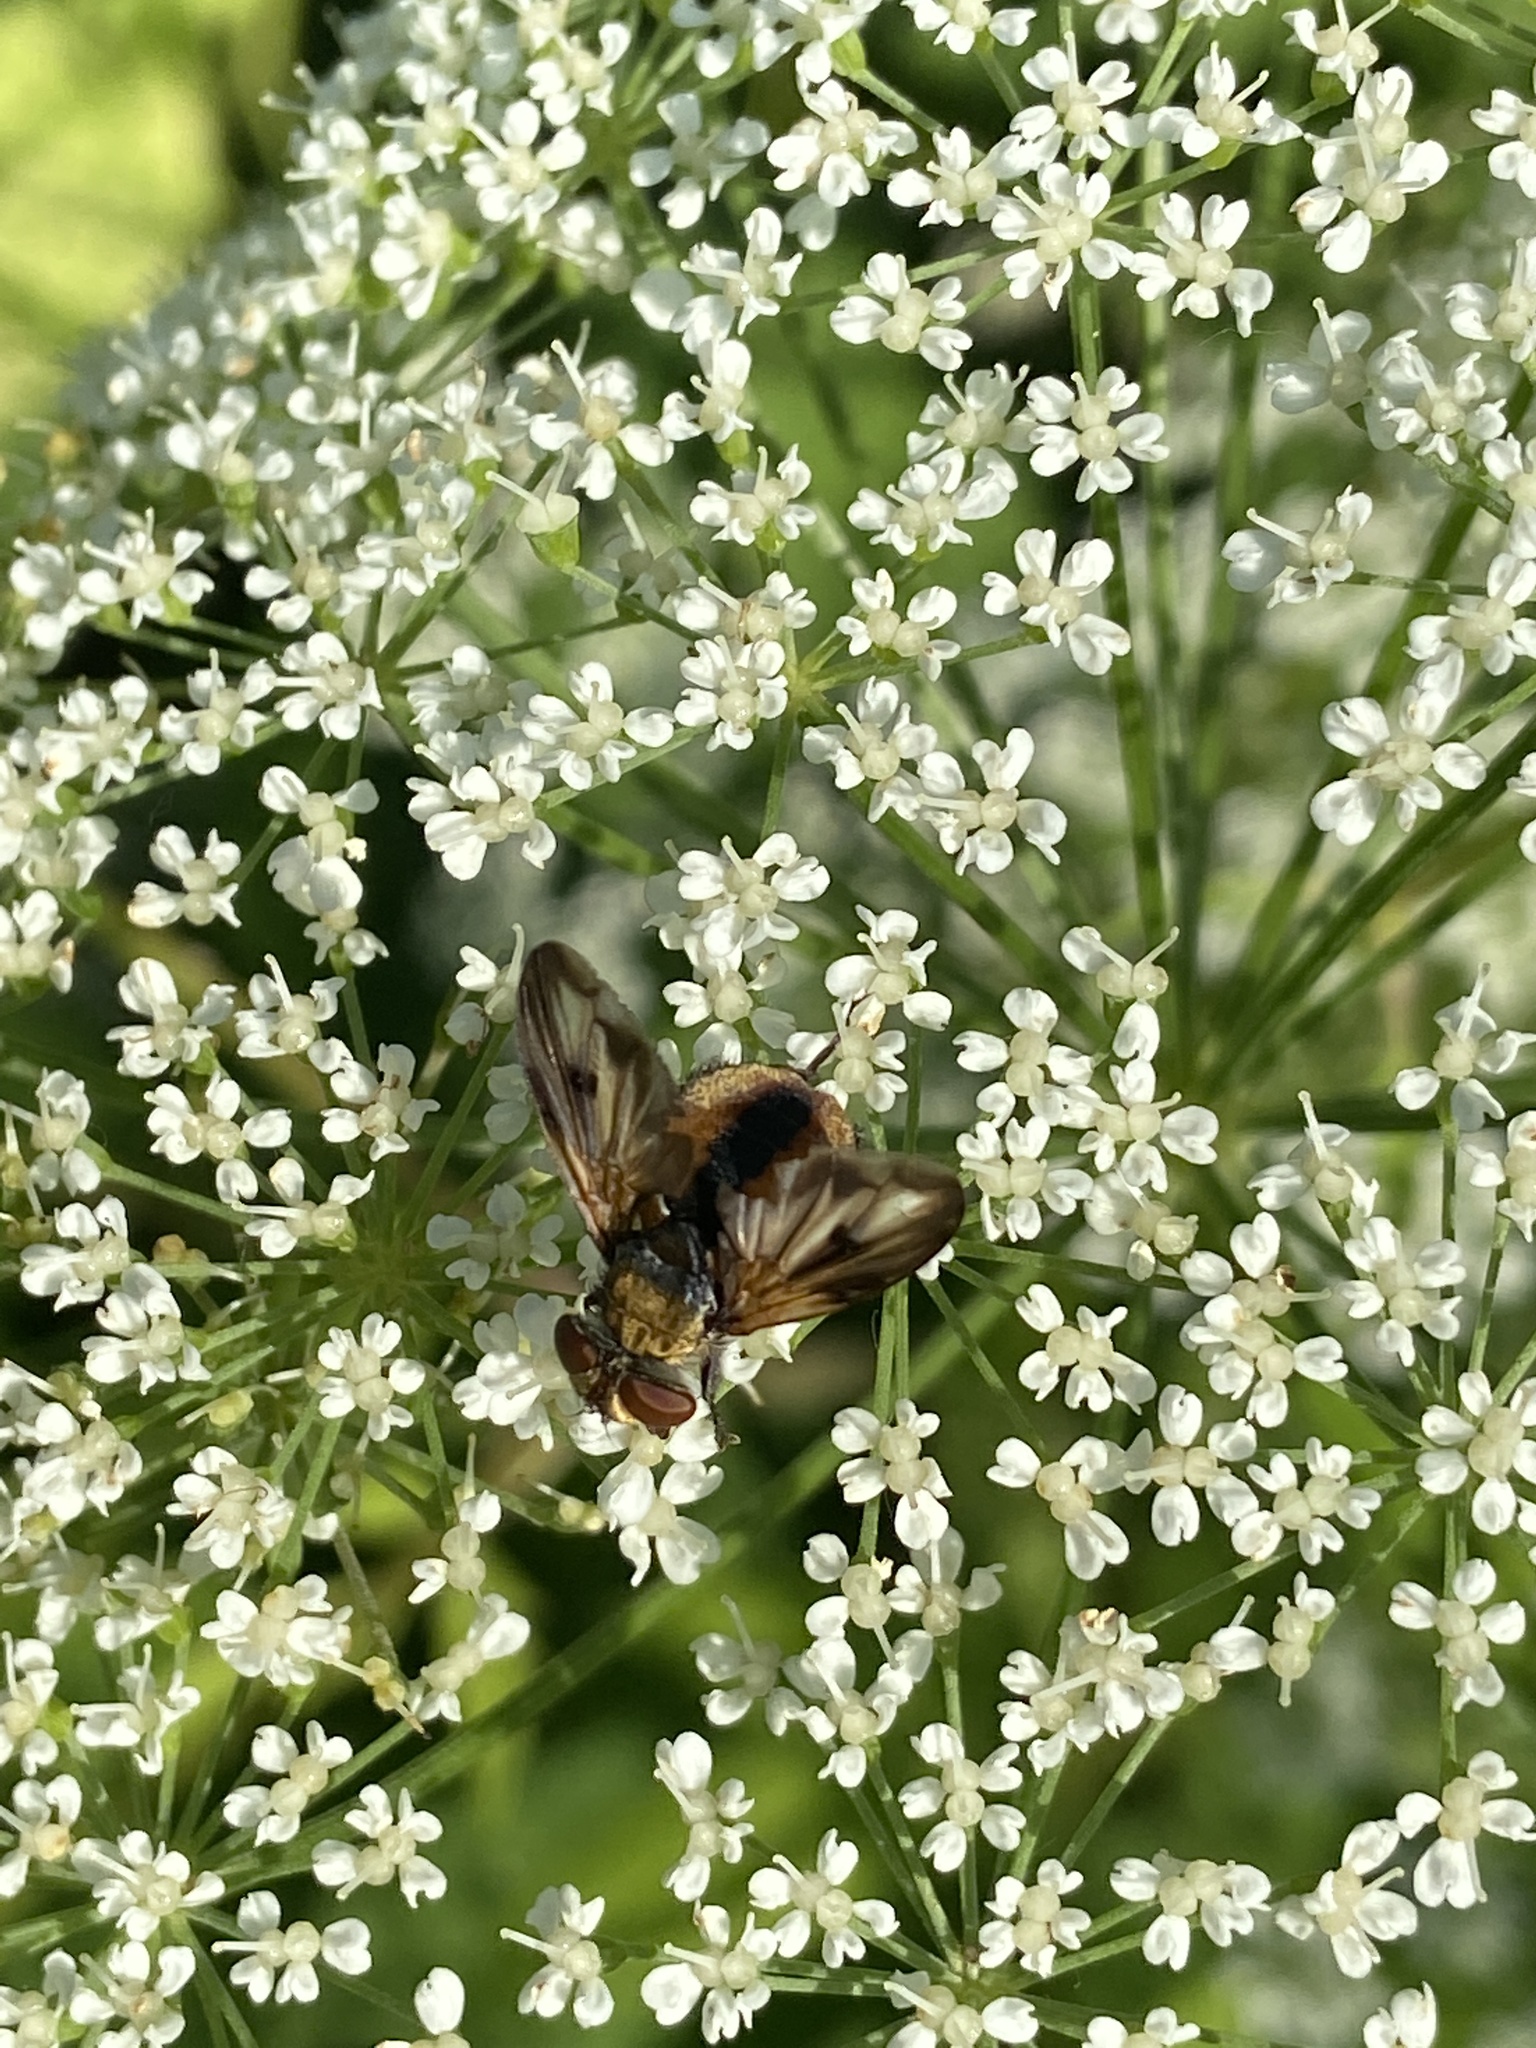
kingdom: Animalia
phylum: Arthropoda
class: Insecta
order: Diptera
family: Tachinidae
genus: Ectophasia
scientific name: Ectophasia crassipennis
